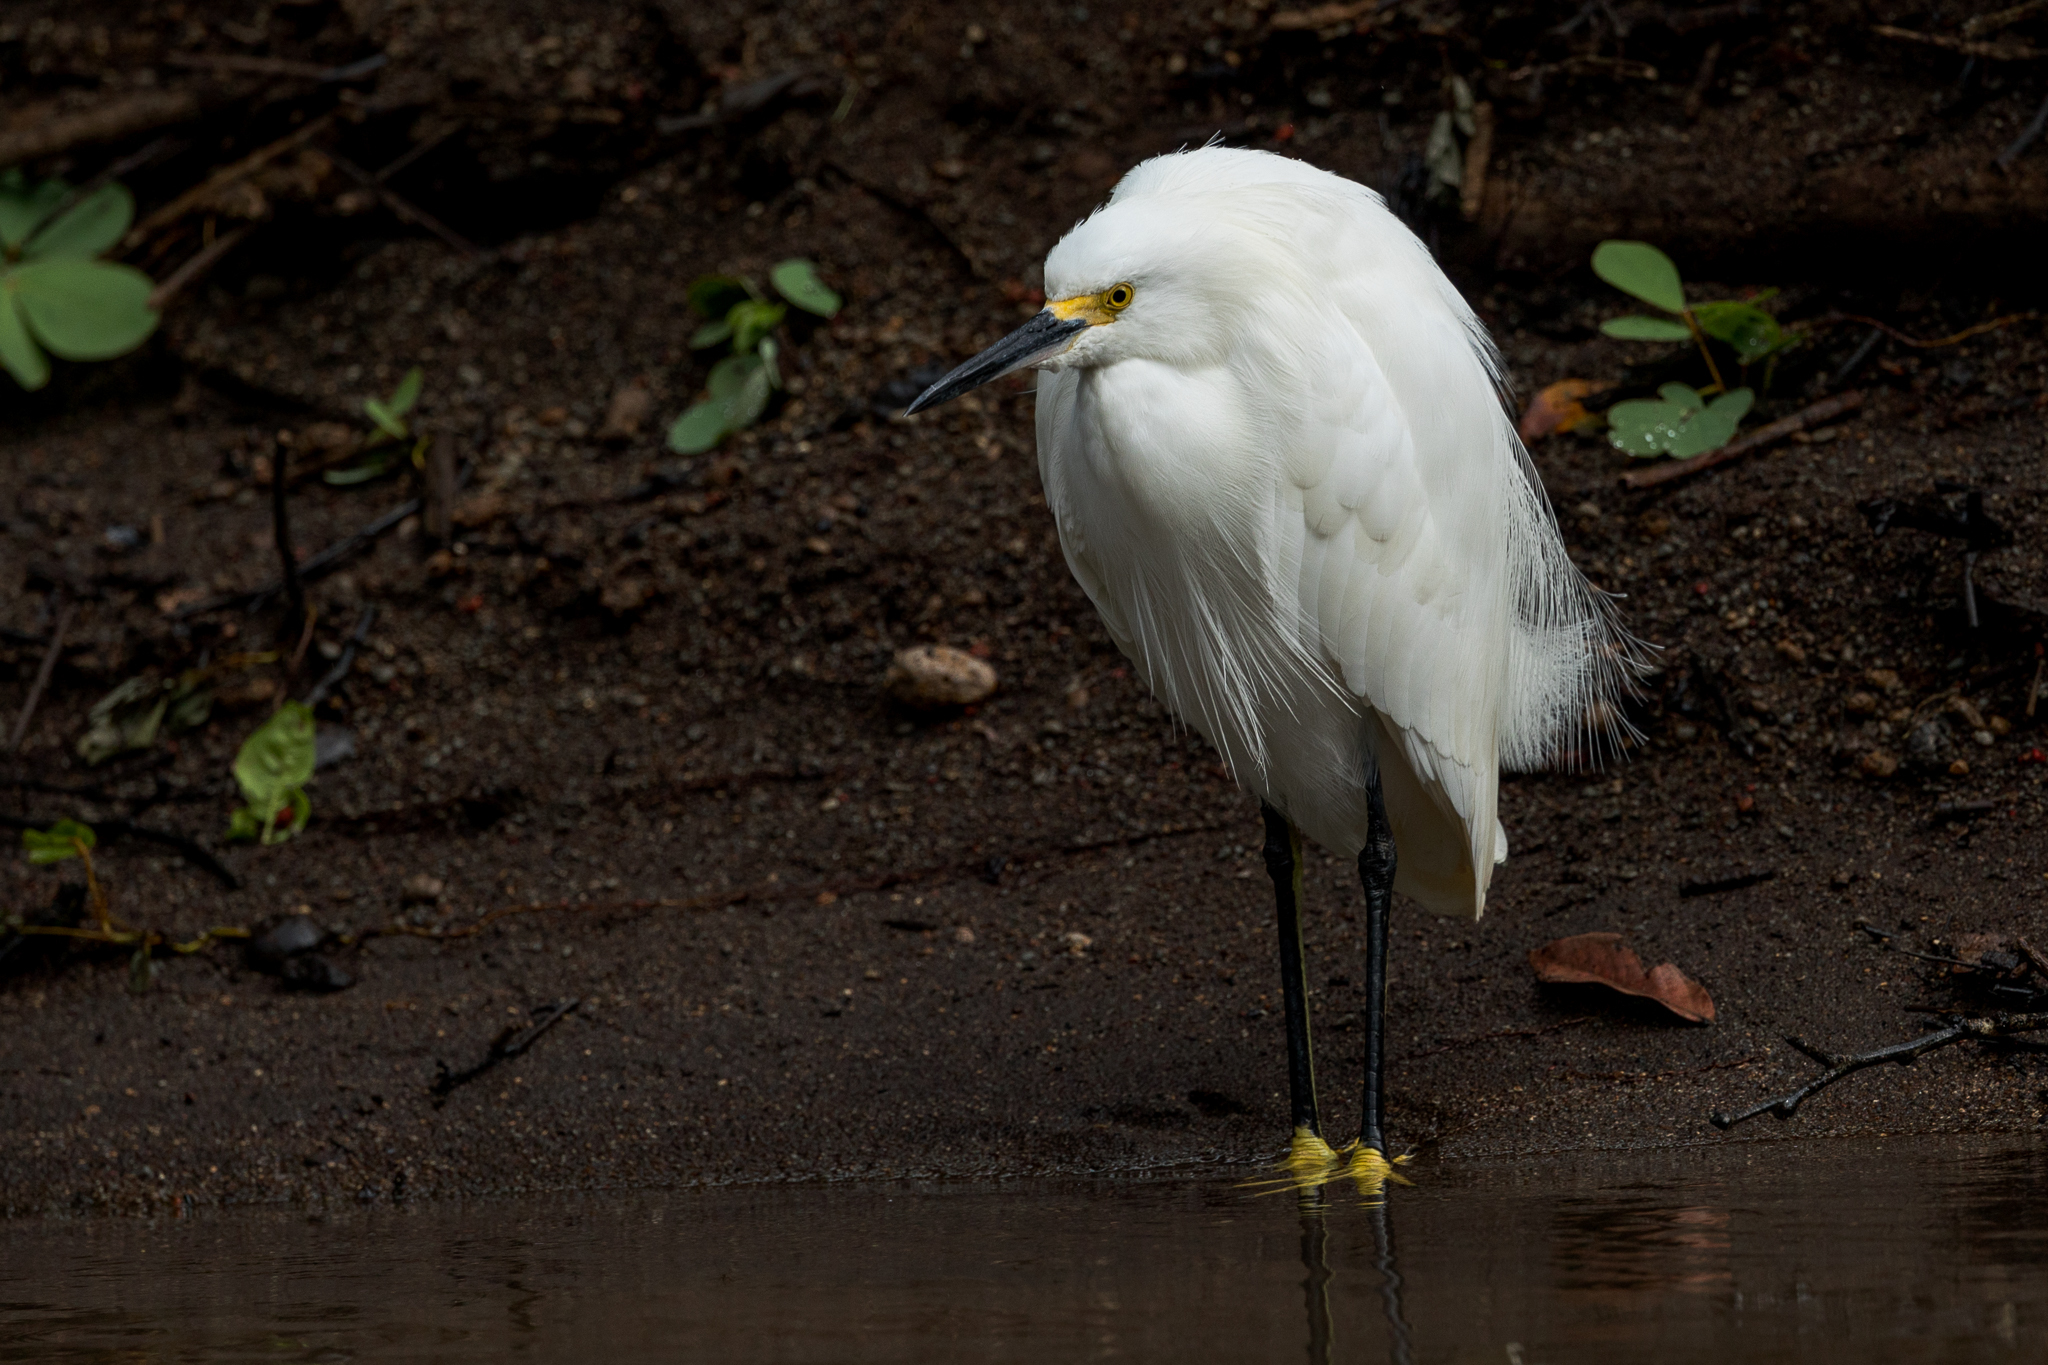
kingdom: Animalia
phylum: Chordata
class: Aves
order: Pelecaniformes
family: Ardeidae
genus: Egretta
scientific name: Egretta thula
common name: Snowy egret
